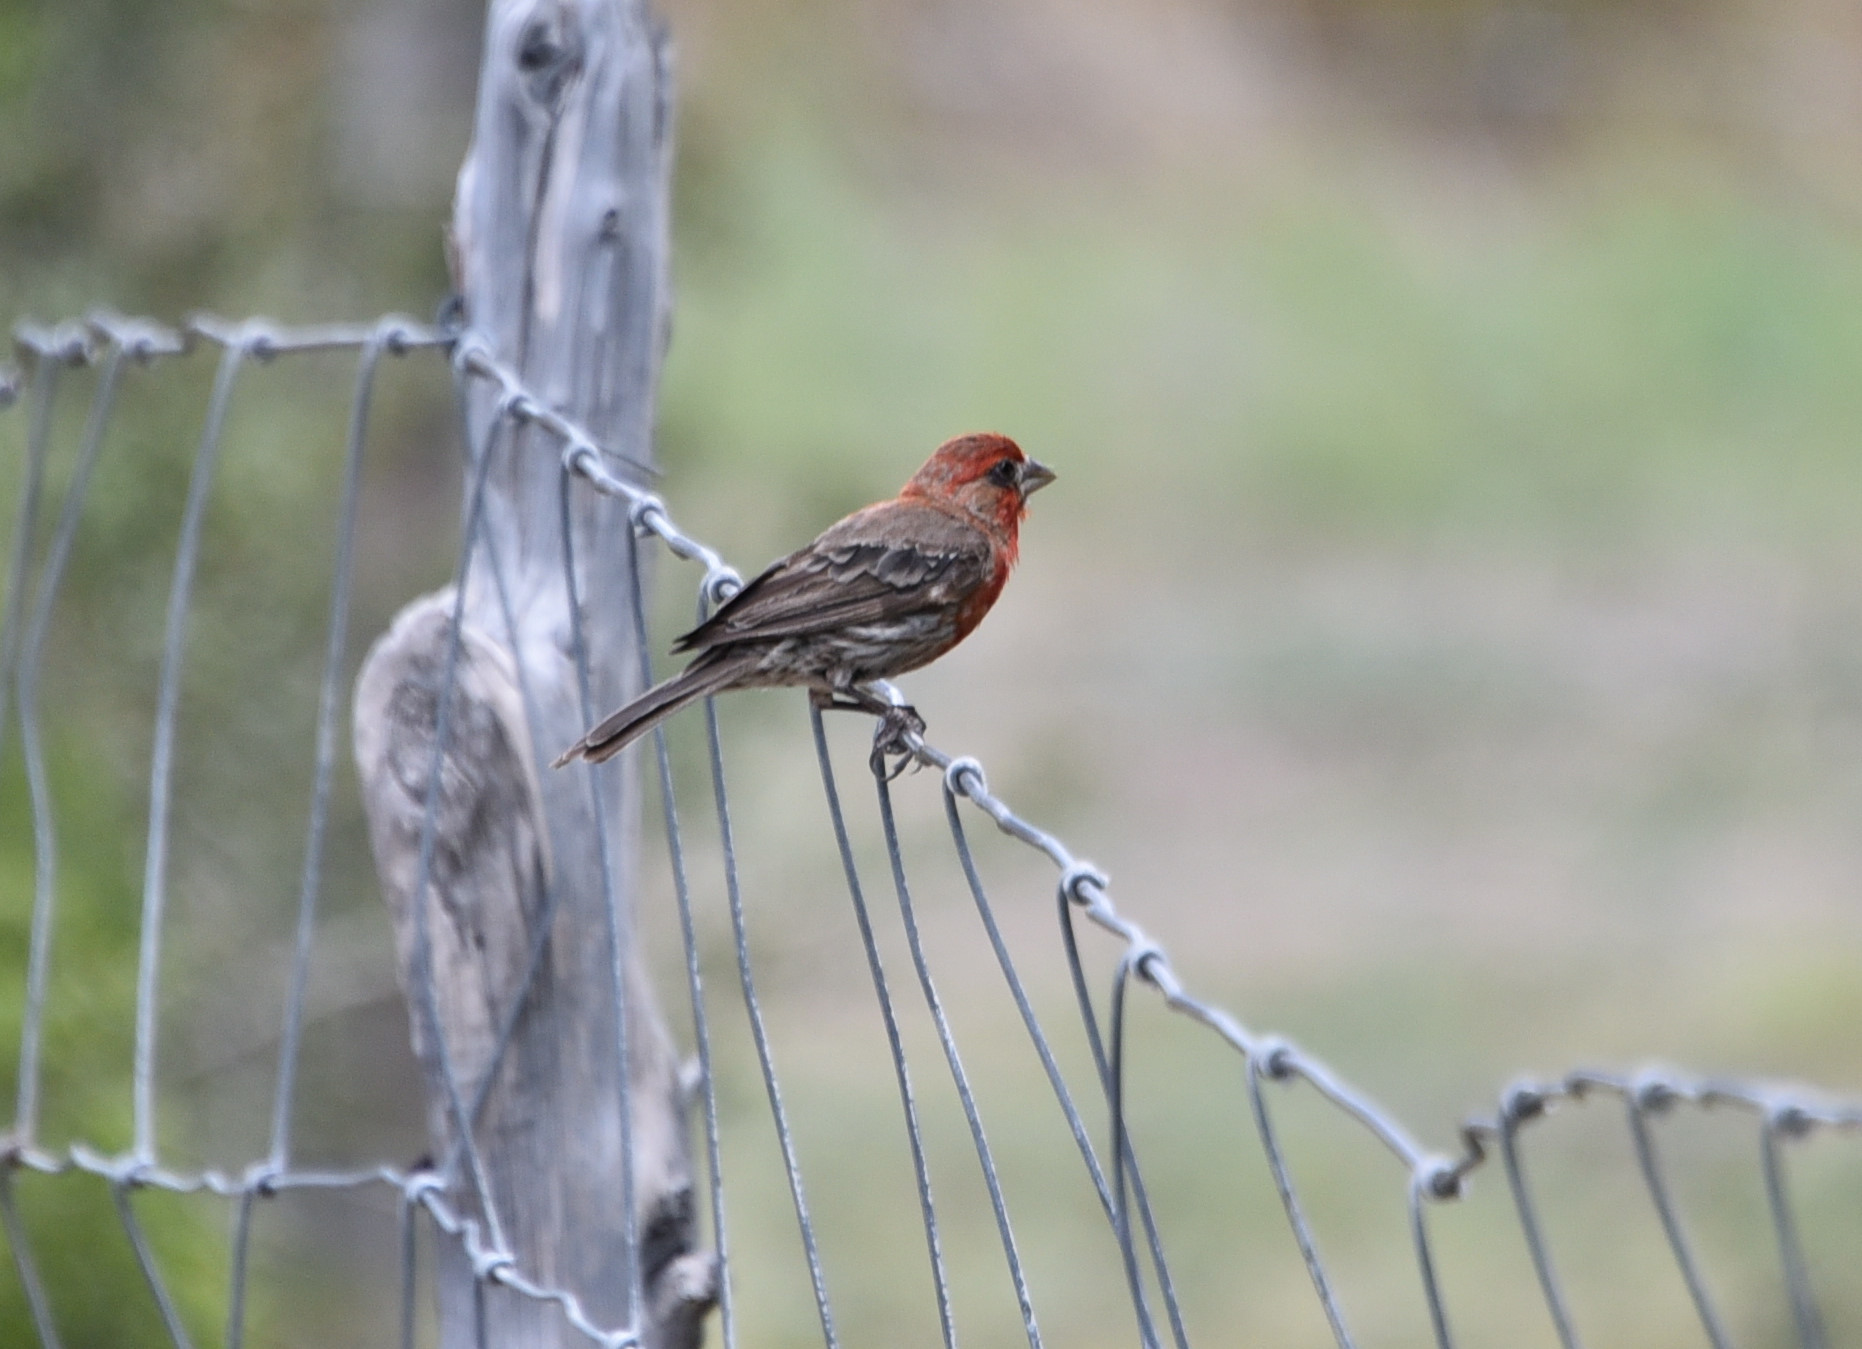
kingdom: Animalia
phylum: Chordata
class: Aves
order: Passeriformes
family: Fringillidae
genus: Haemorhous
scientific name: Haemorhous mexicanus
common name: House finch
